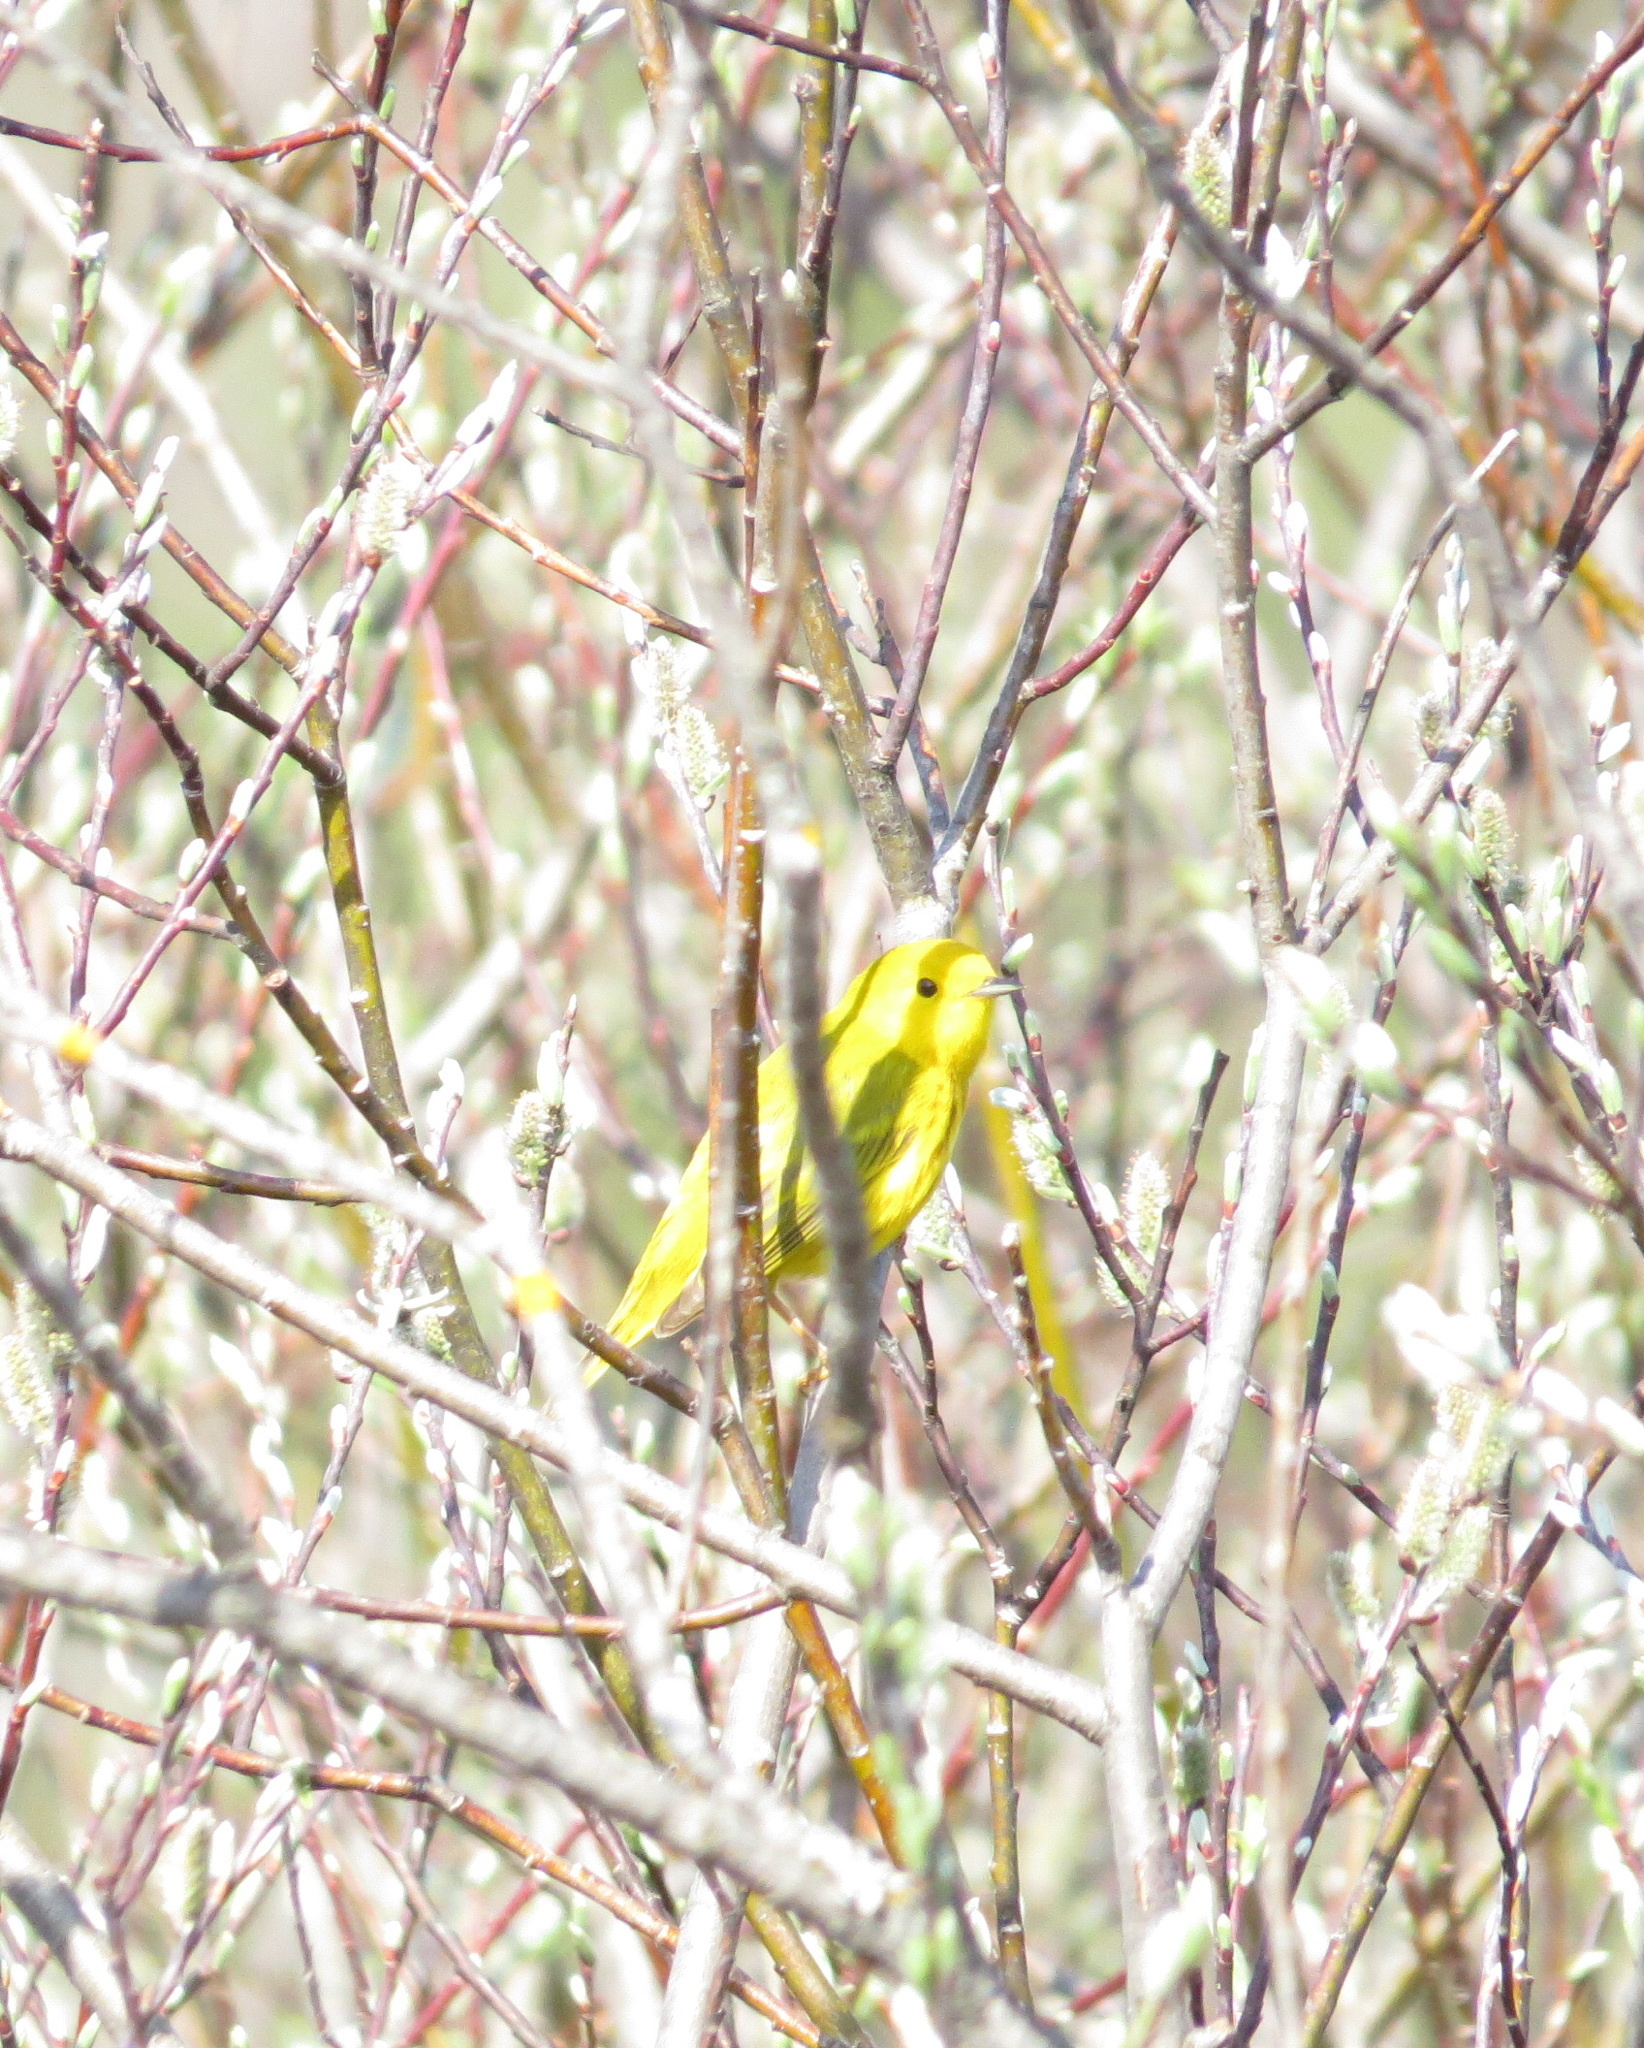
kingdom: Animalia
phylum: Chordata
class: Aves
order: Passeriformes
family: Parulidae
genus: Setophaga
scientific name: Setophaga petechia
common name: Yellow warbler
